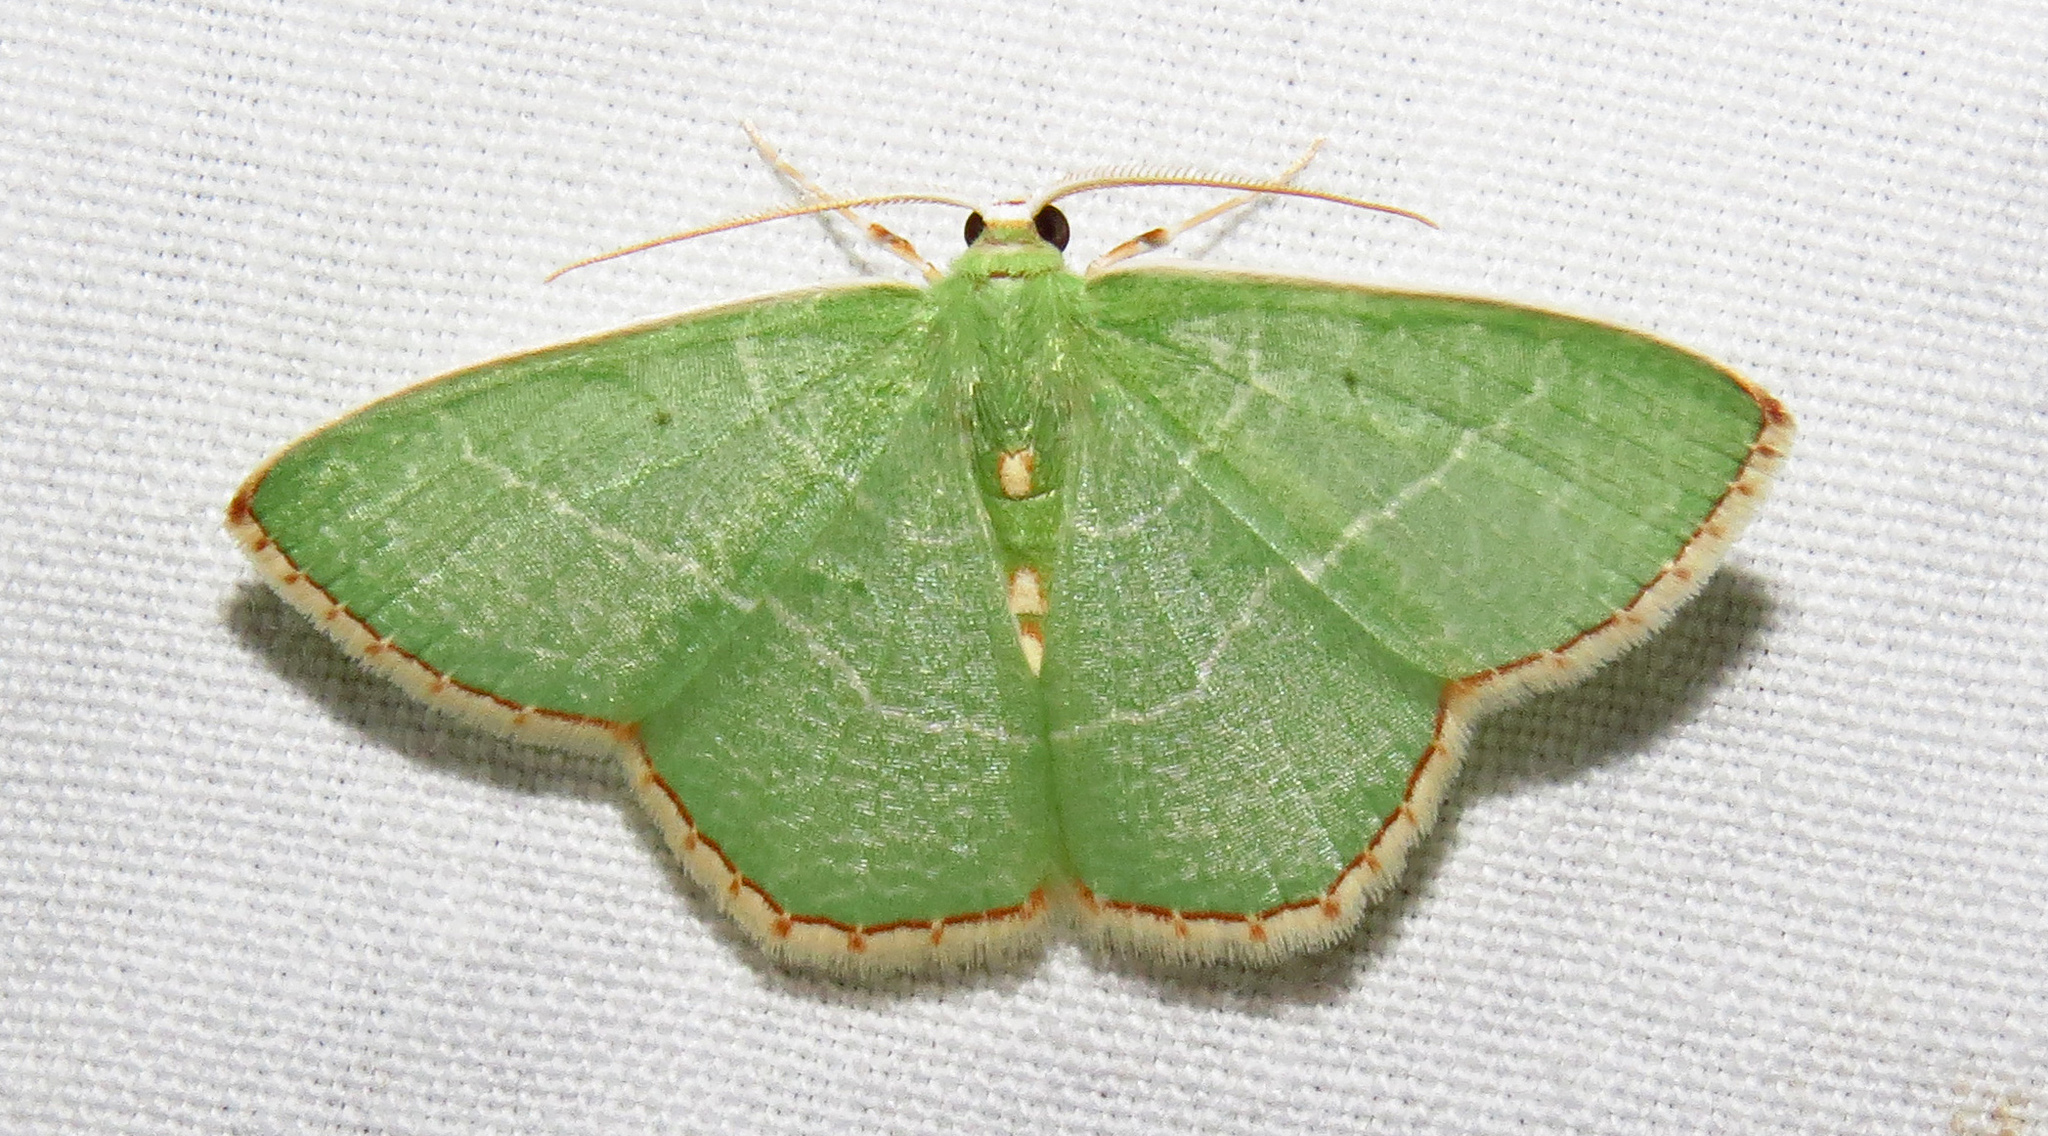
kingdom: Animalia
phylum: Arthropoda
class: Insecta
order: Lepidoptera
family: Geometridae
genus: Nemoria
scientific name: Nemoria lixaria
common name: Red-bordered emerald
